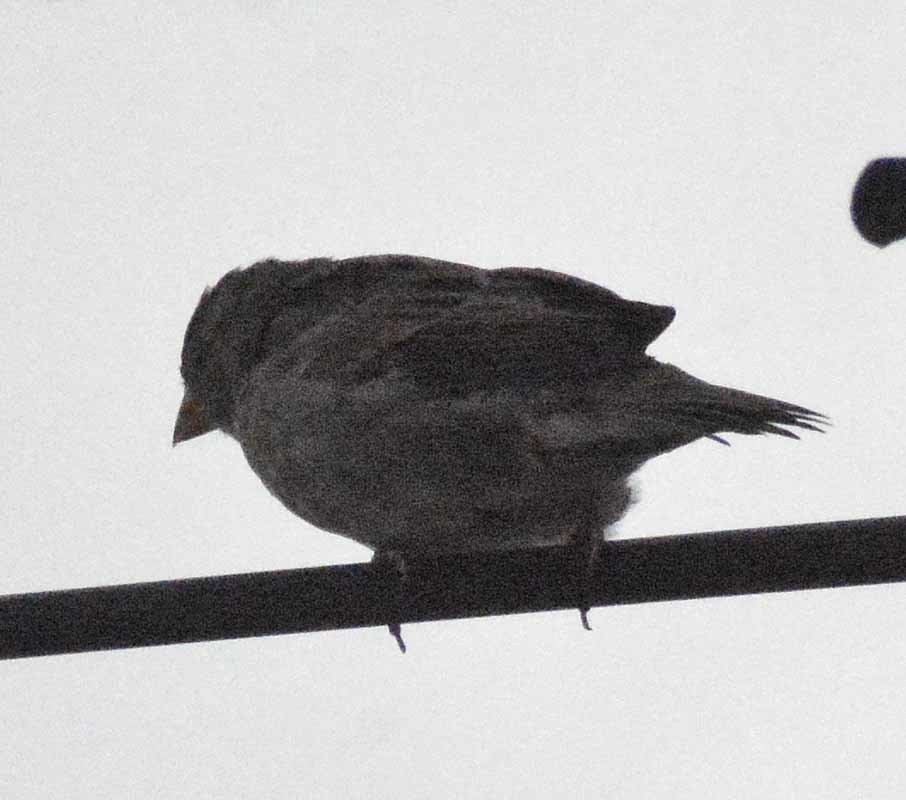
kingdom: Animalia
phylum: Chordata
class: Aves
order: Passeriformes
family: Passeridae
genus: Passer
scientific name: Passer domesticus
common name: House sparrow
